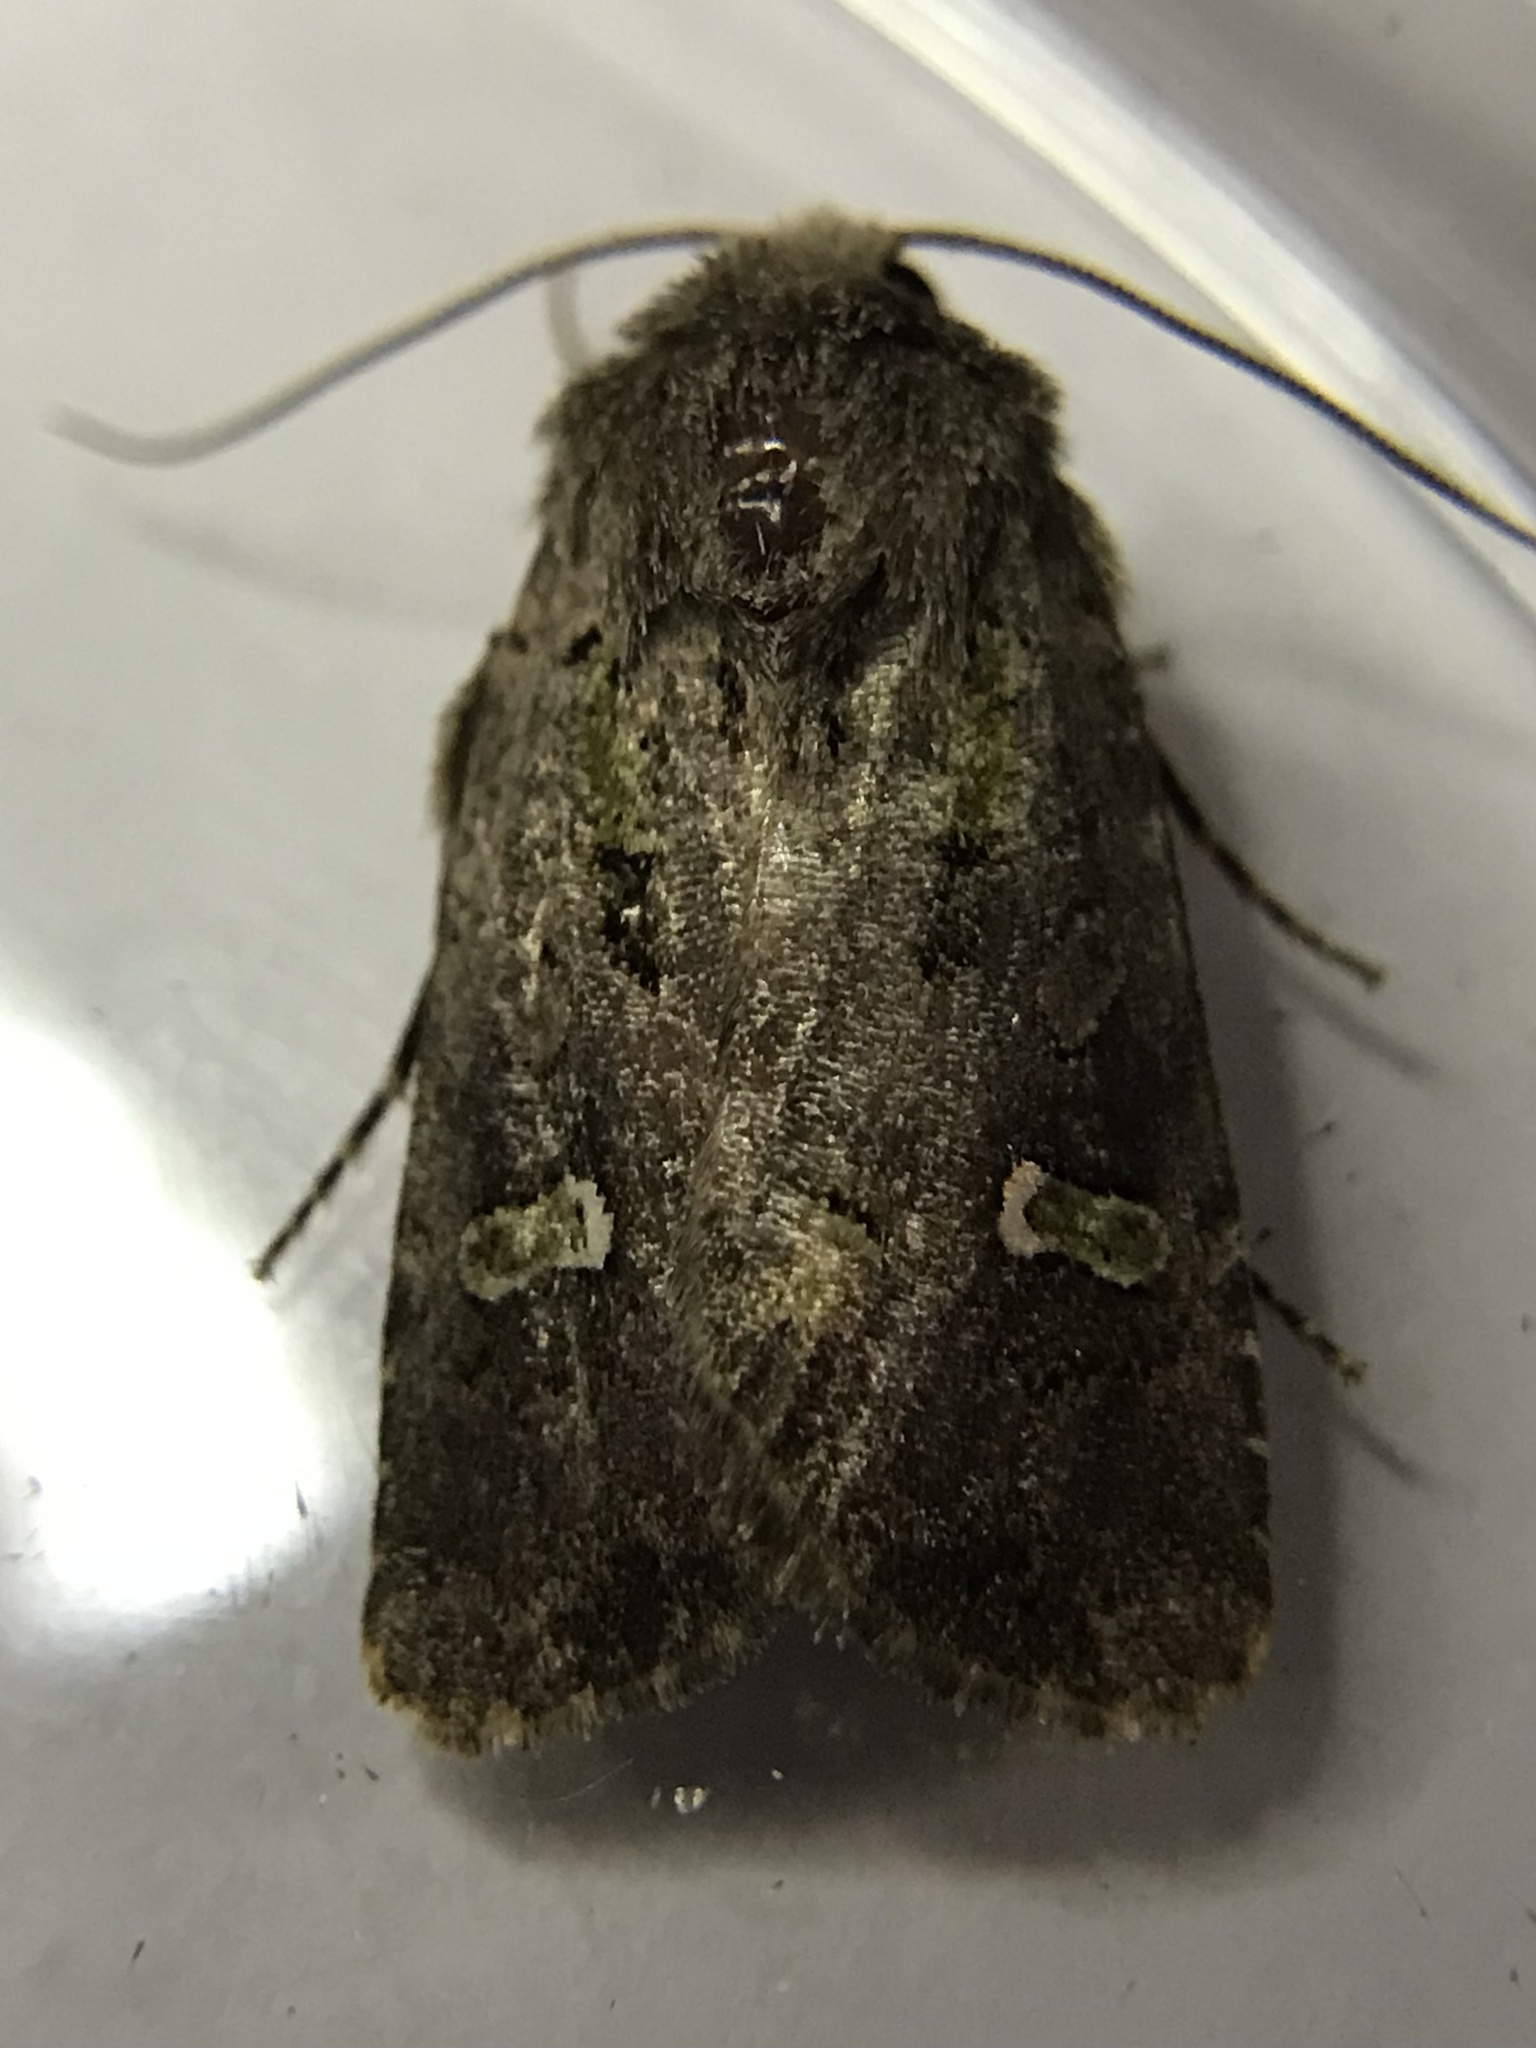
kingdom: Animalia
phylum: Arthropoda
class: Insecta
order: Lepidoptera
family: Noctuidae
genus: Lacinipolia
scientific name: Lacinipolia renigera
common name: Kidney-spotted minor
